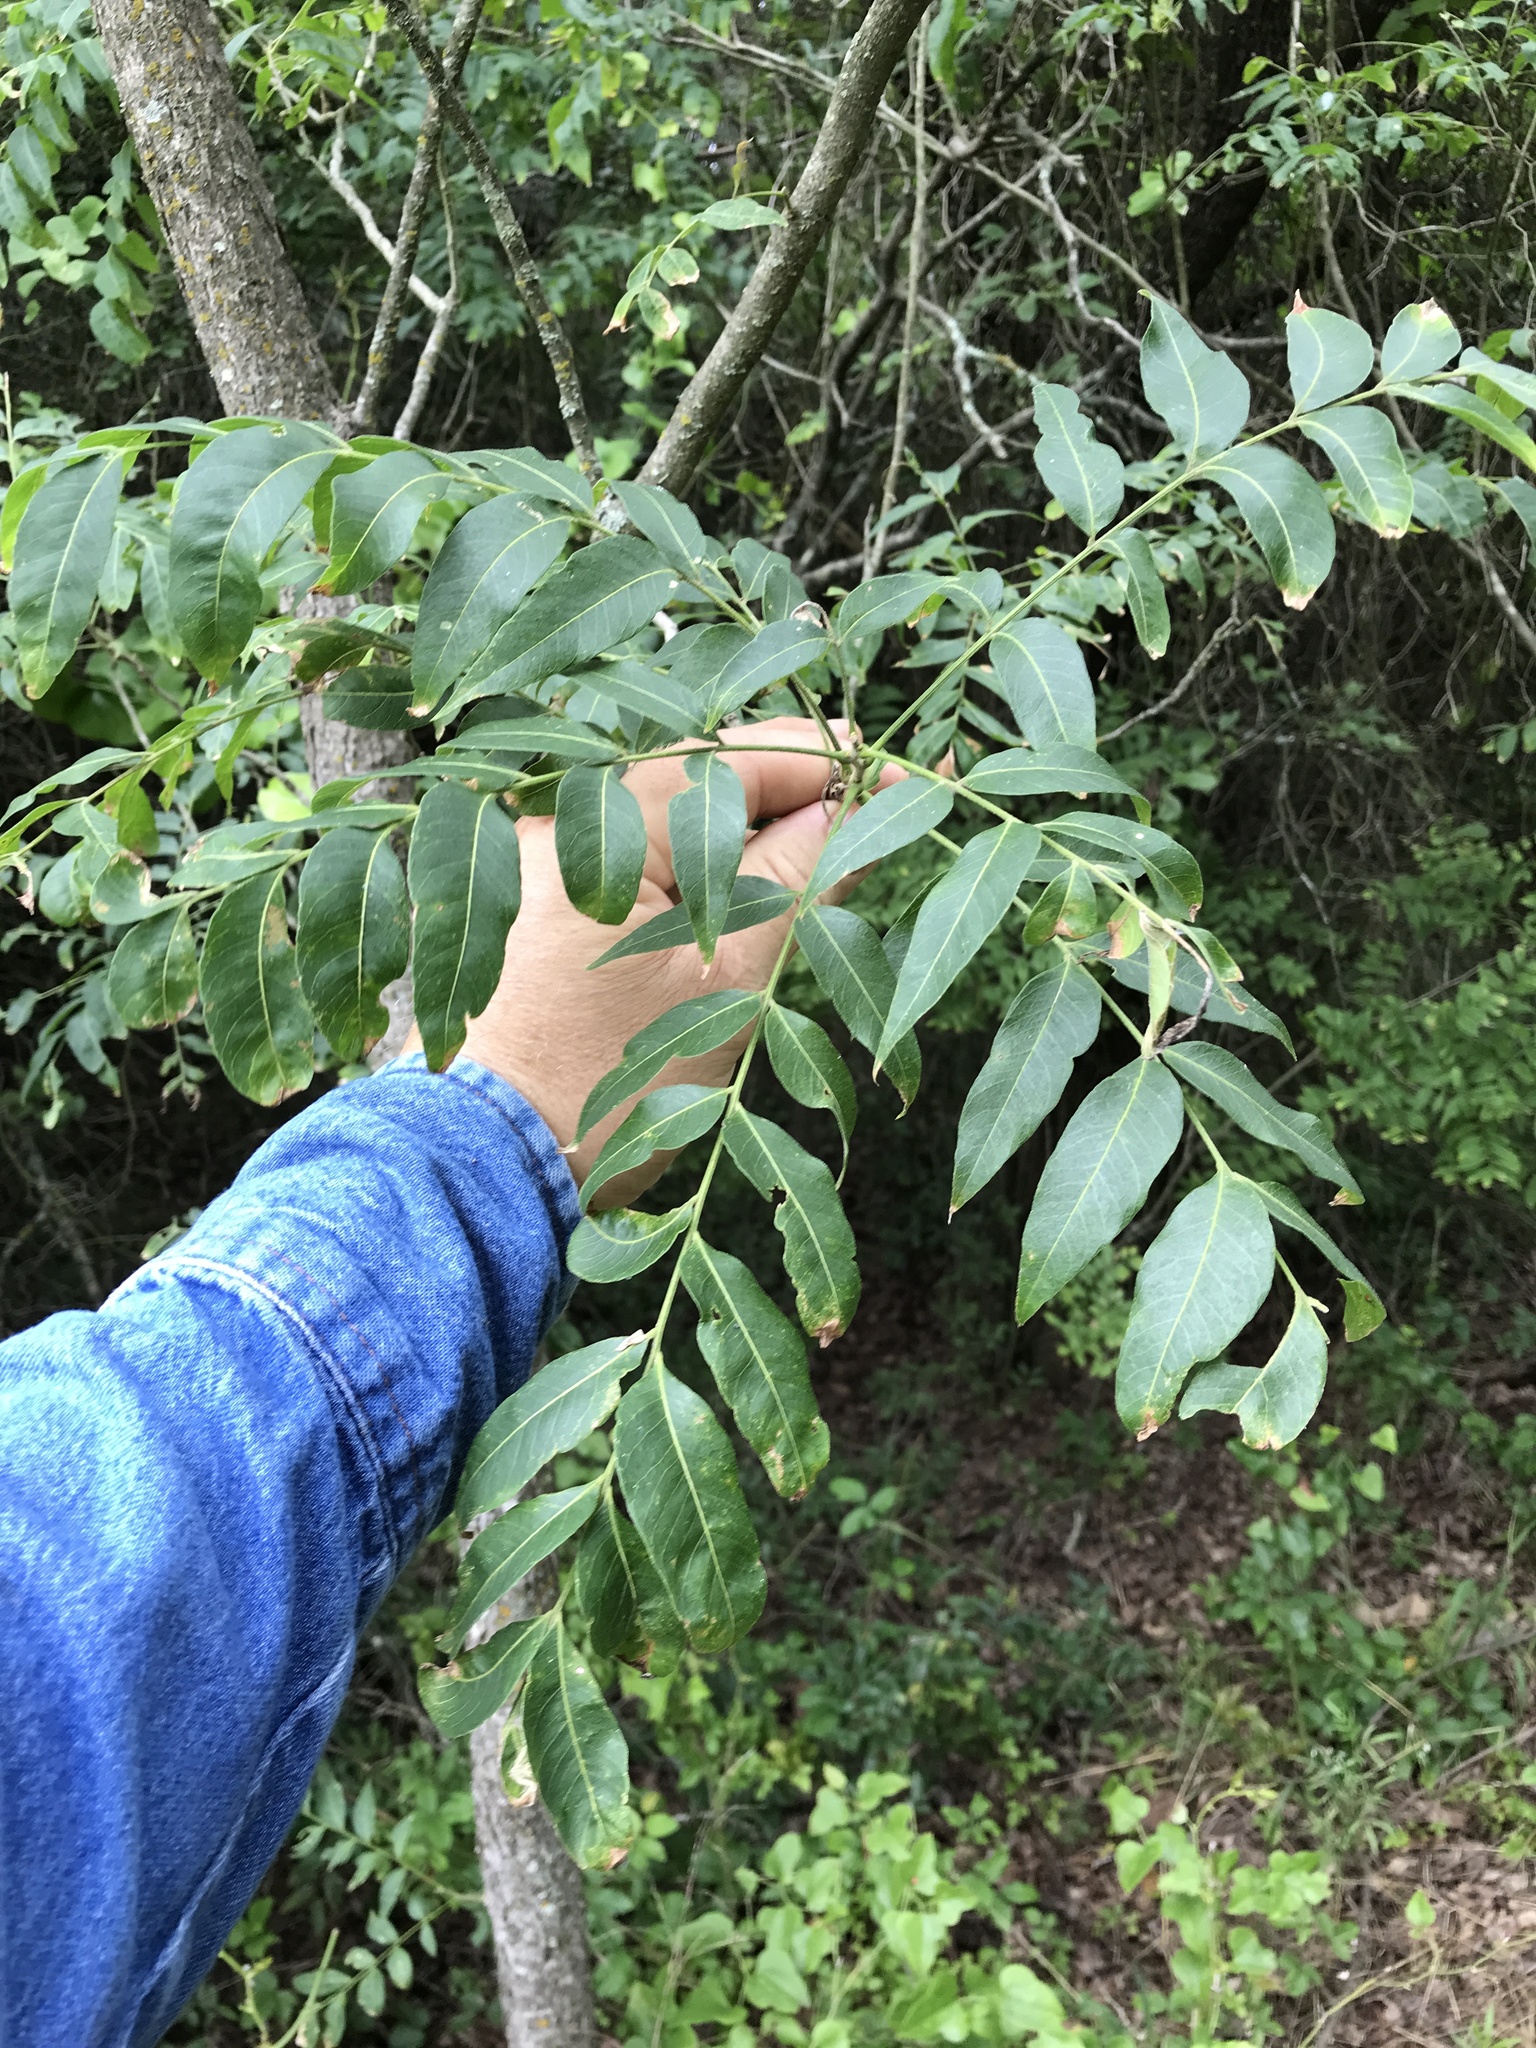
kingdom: Plantae
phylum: Tracheophyta
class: Magnoliopsida
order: Sapindales
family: Sapindaceae
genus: Sapindus
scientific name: Sapindus drummondii
